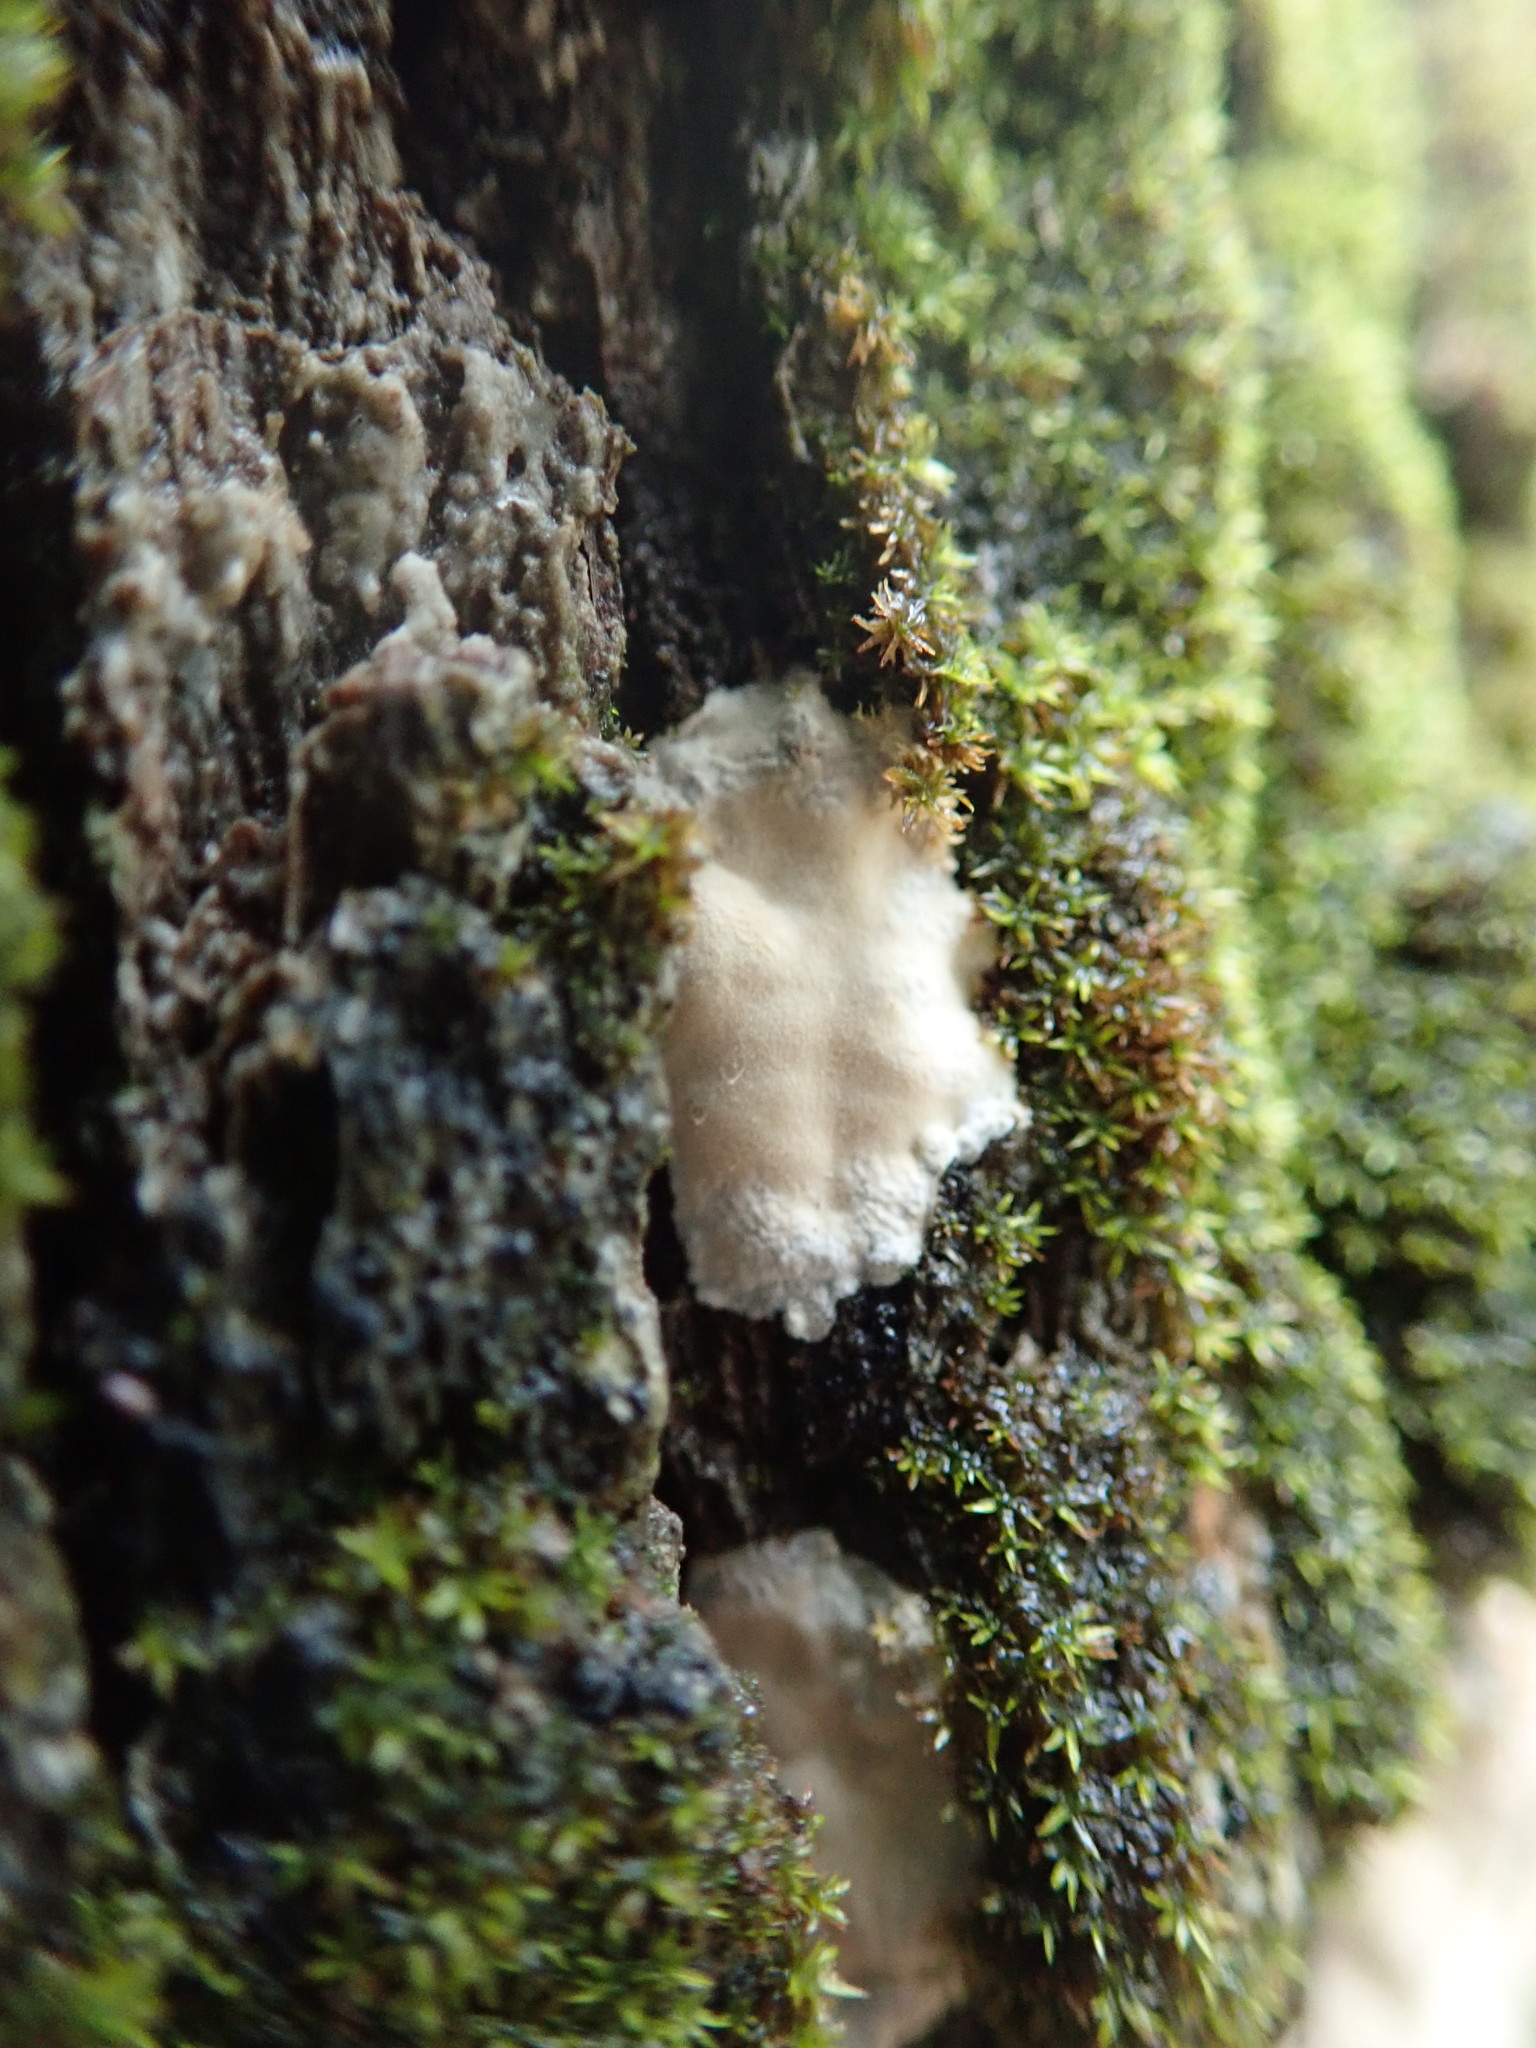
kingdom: Fungi
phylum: Basidiomycota
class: Agaricomycetes
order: Agaricales
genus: Dendrothele
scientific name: Dendrothele candida
